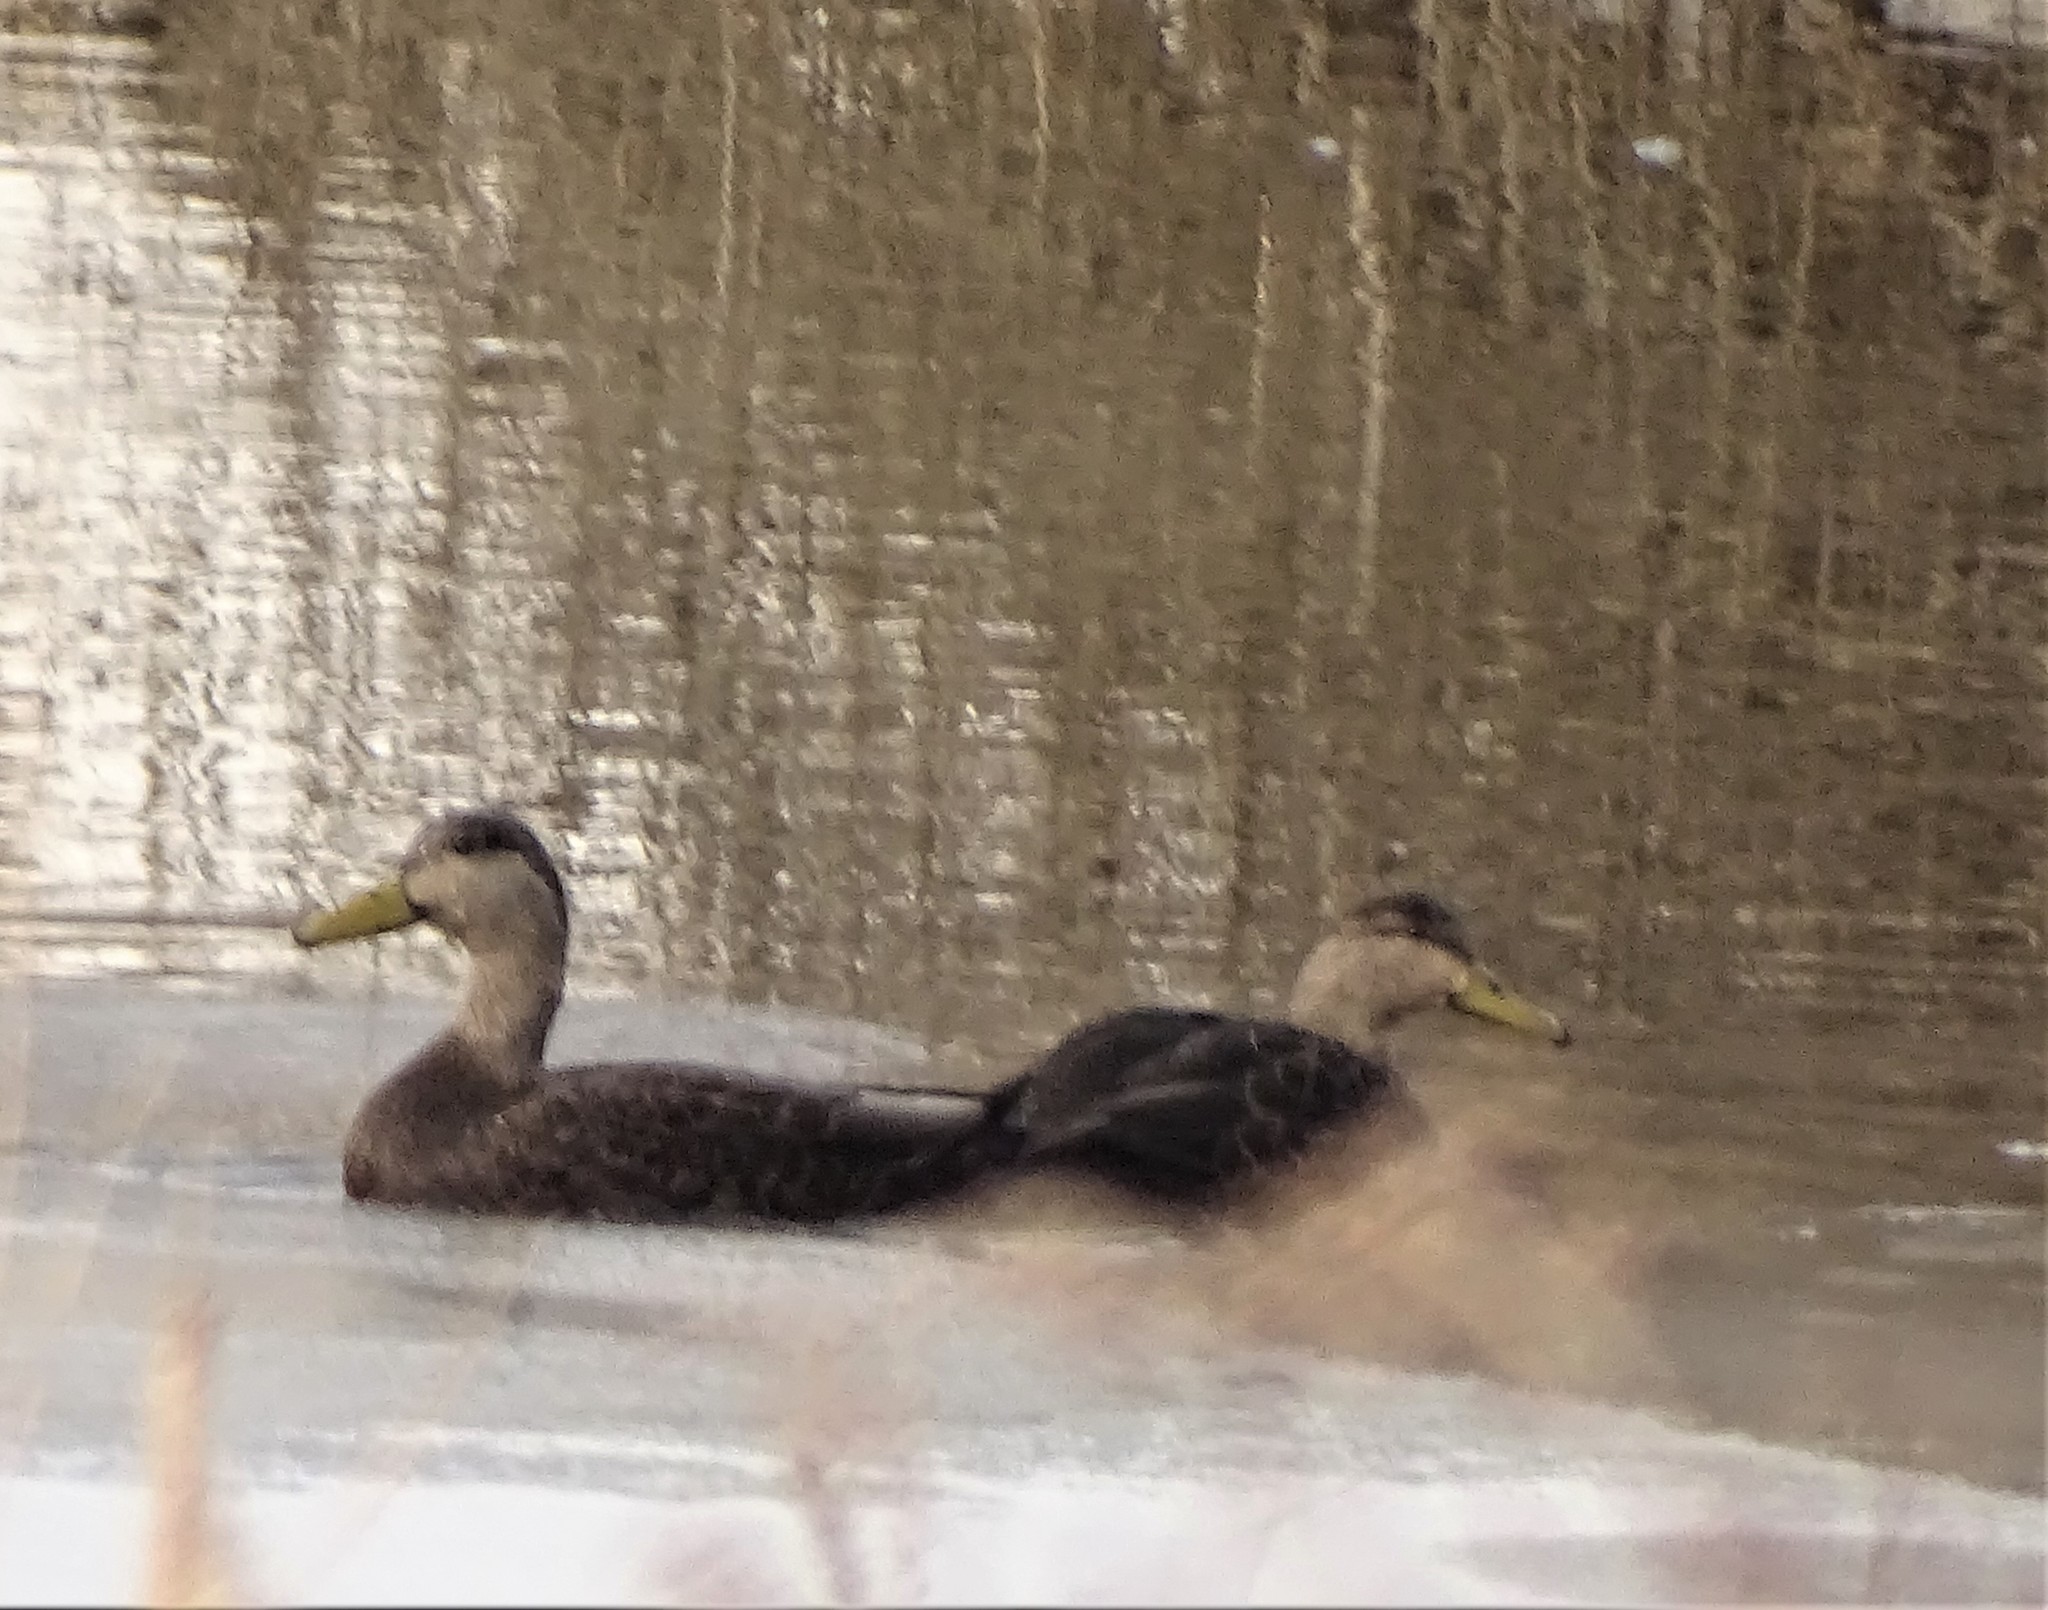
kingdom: Animalia
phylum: Chordata
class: Aves
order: Anseriformes
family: Anatidae
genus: Anas
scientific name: Anas rubripes
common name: American black duck
